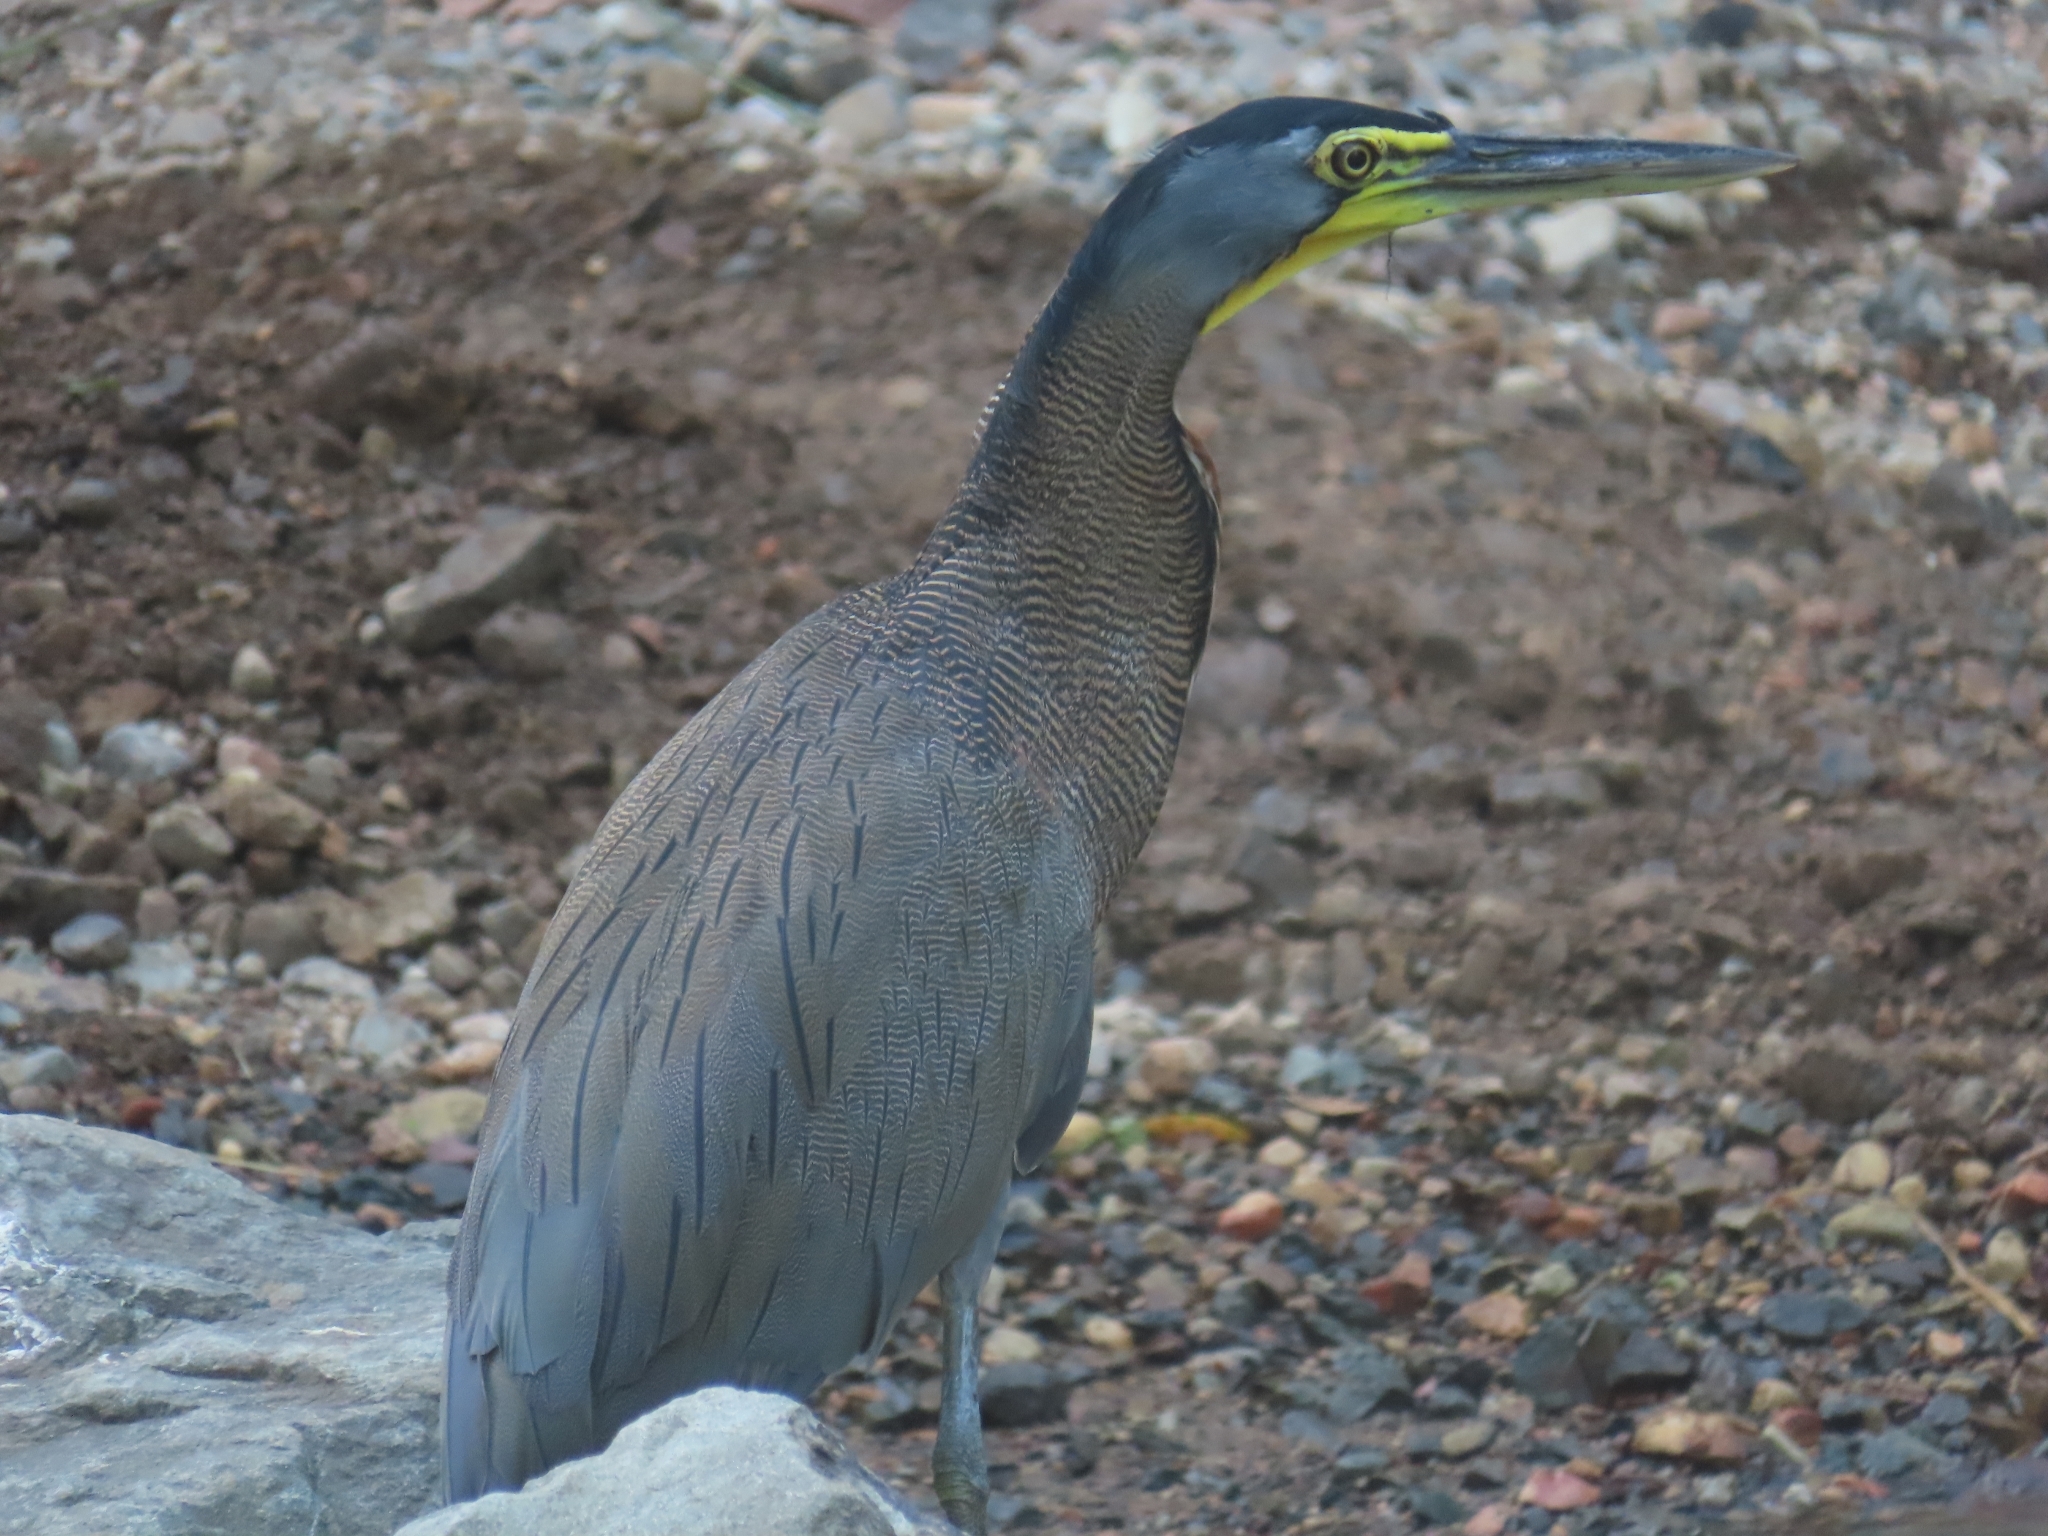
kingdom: Animalia
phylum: Chordata
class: Aves
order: Pelecaniformes
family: Ardeidae
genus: Tigrisoma
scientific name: Tigrisoma mexicanum
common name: Bare-throated tiger-heron
